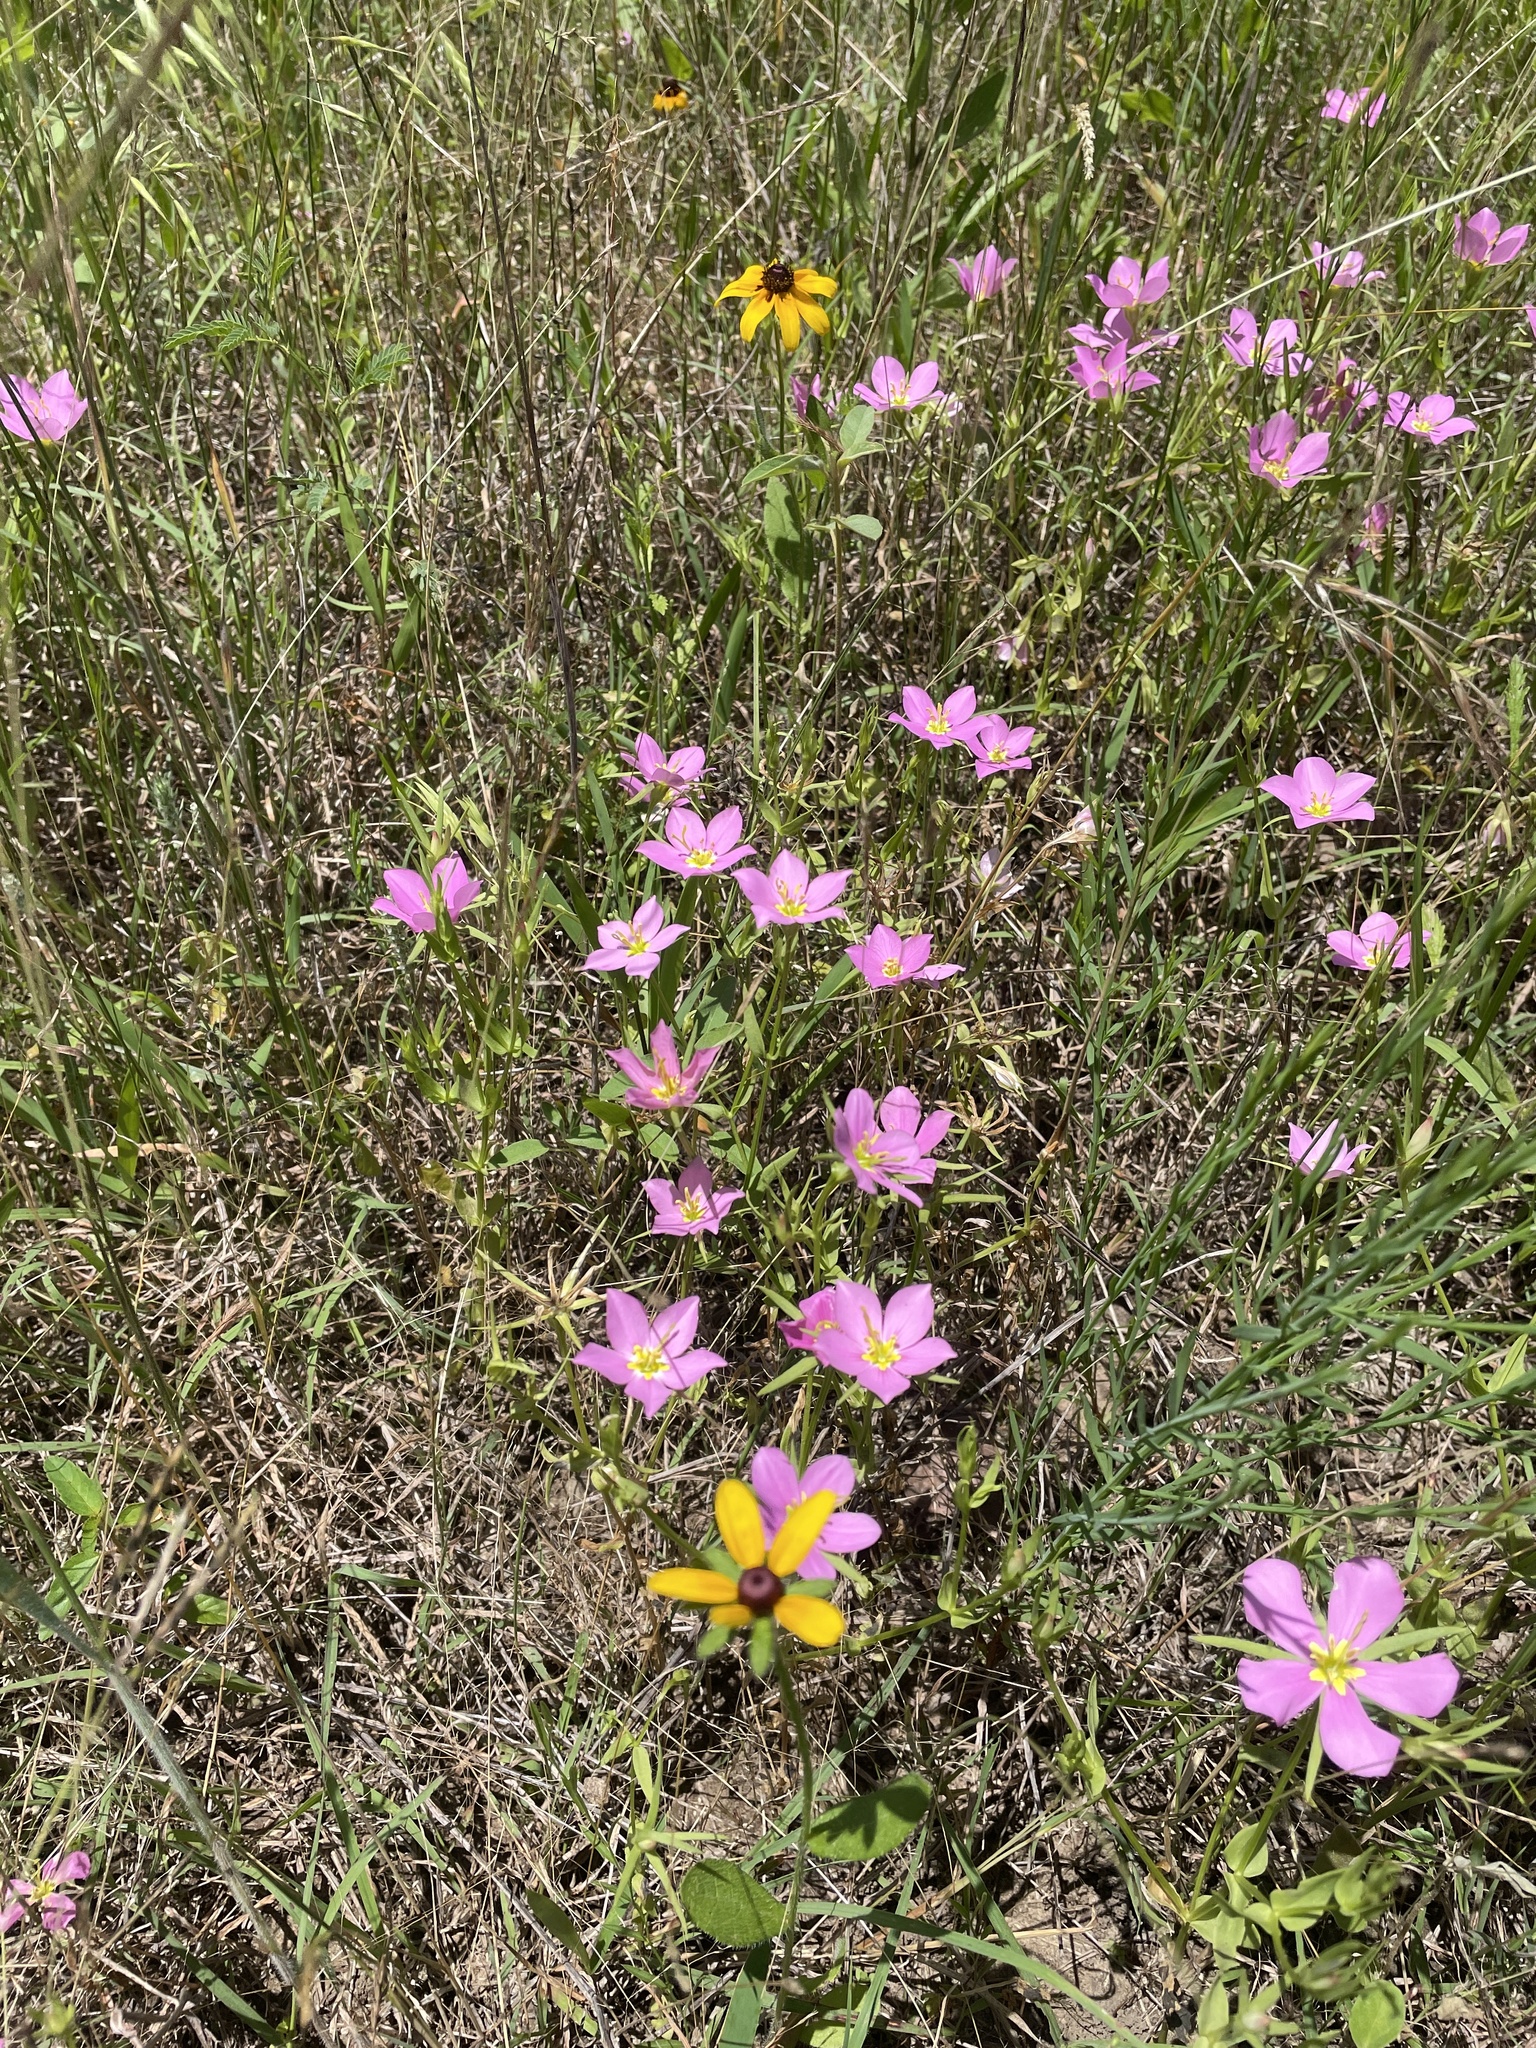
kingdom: Plantae
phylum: Tracheophyta
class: Magnoliopsida
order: Gentianales
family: Gentianaceae
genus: Sabatia
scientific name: Sabatia campestris
